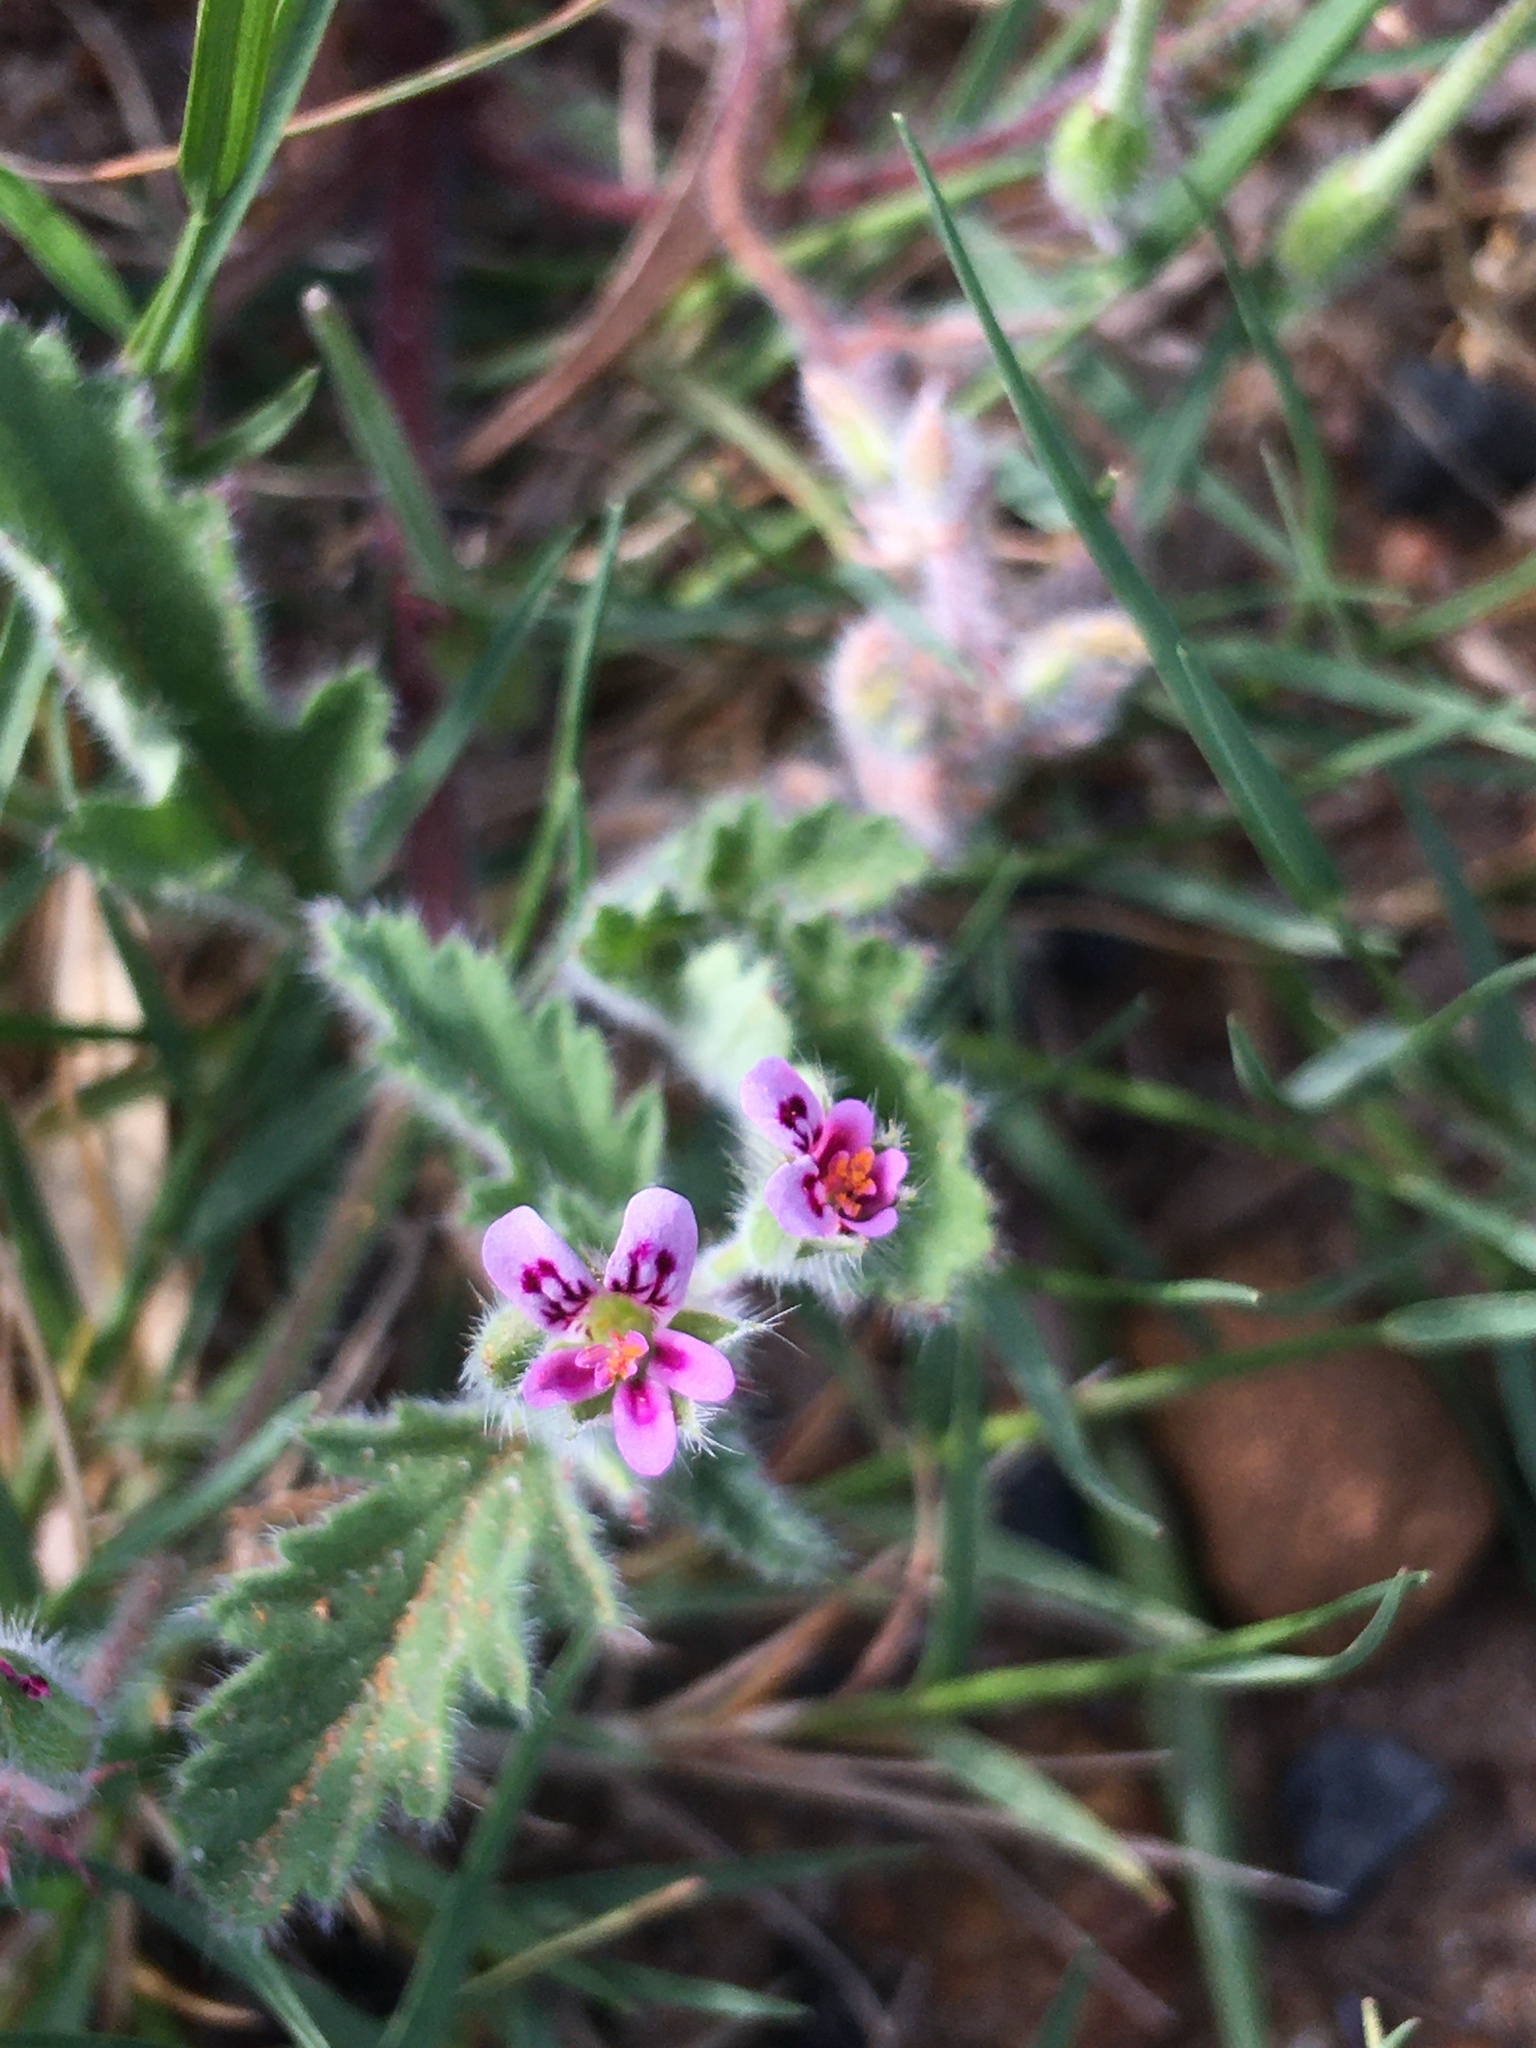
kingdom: Plantae
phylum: Tracheophyta
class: Magnoliopsida
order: Geraniales
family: Geraniaceae
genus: Pelargonium
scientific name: Pelargonium althaeoides
